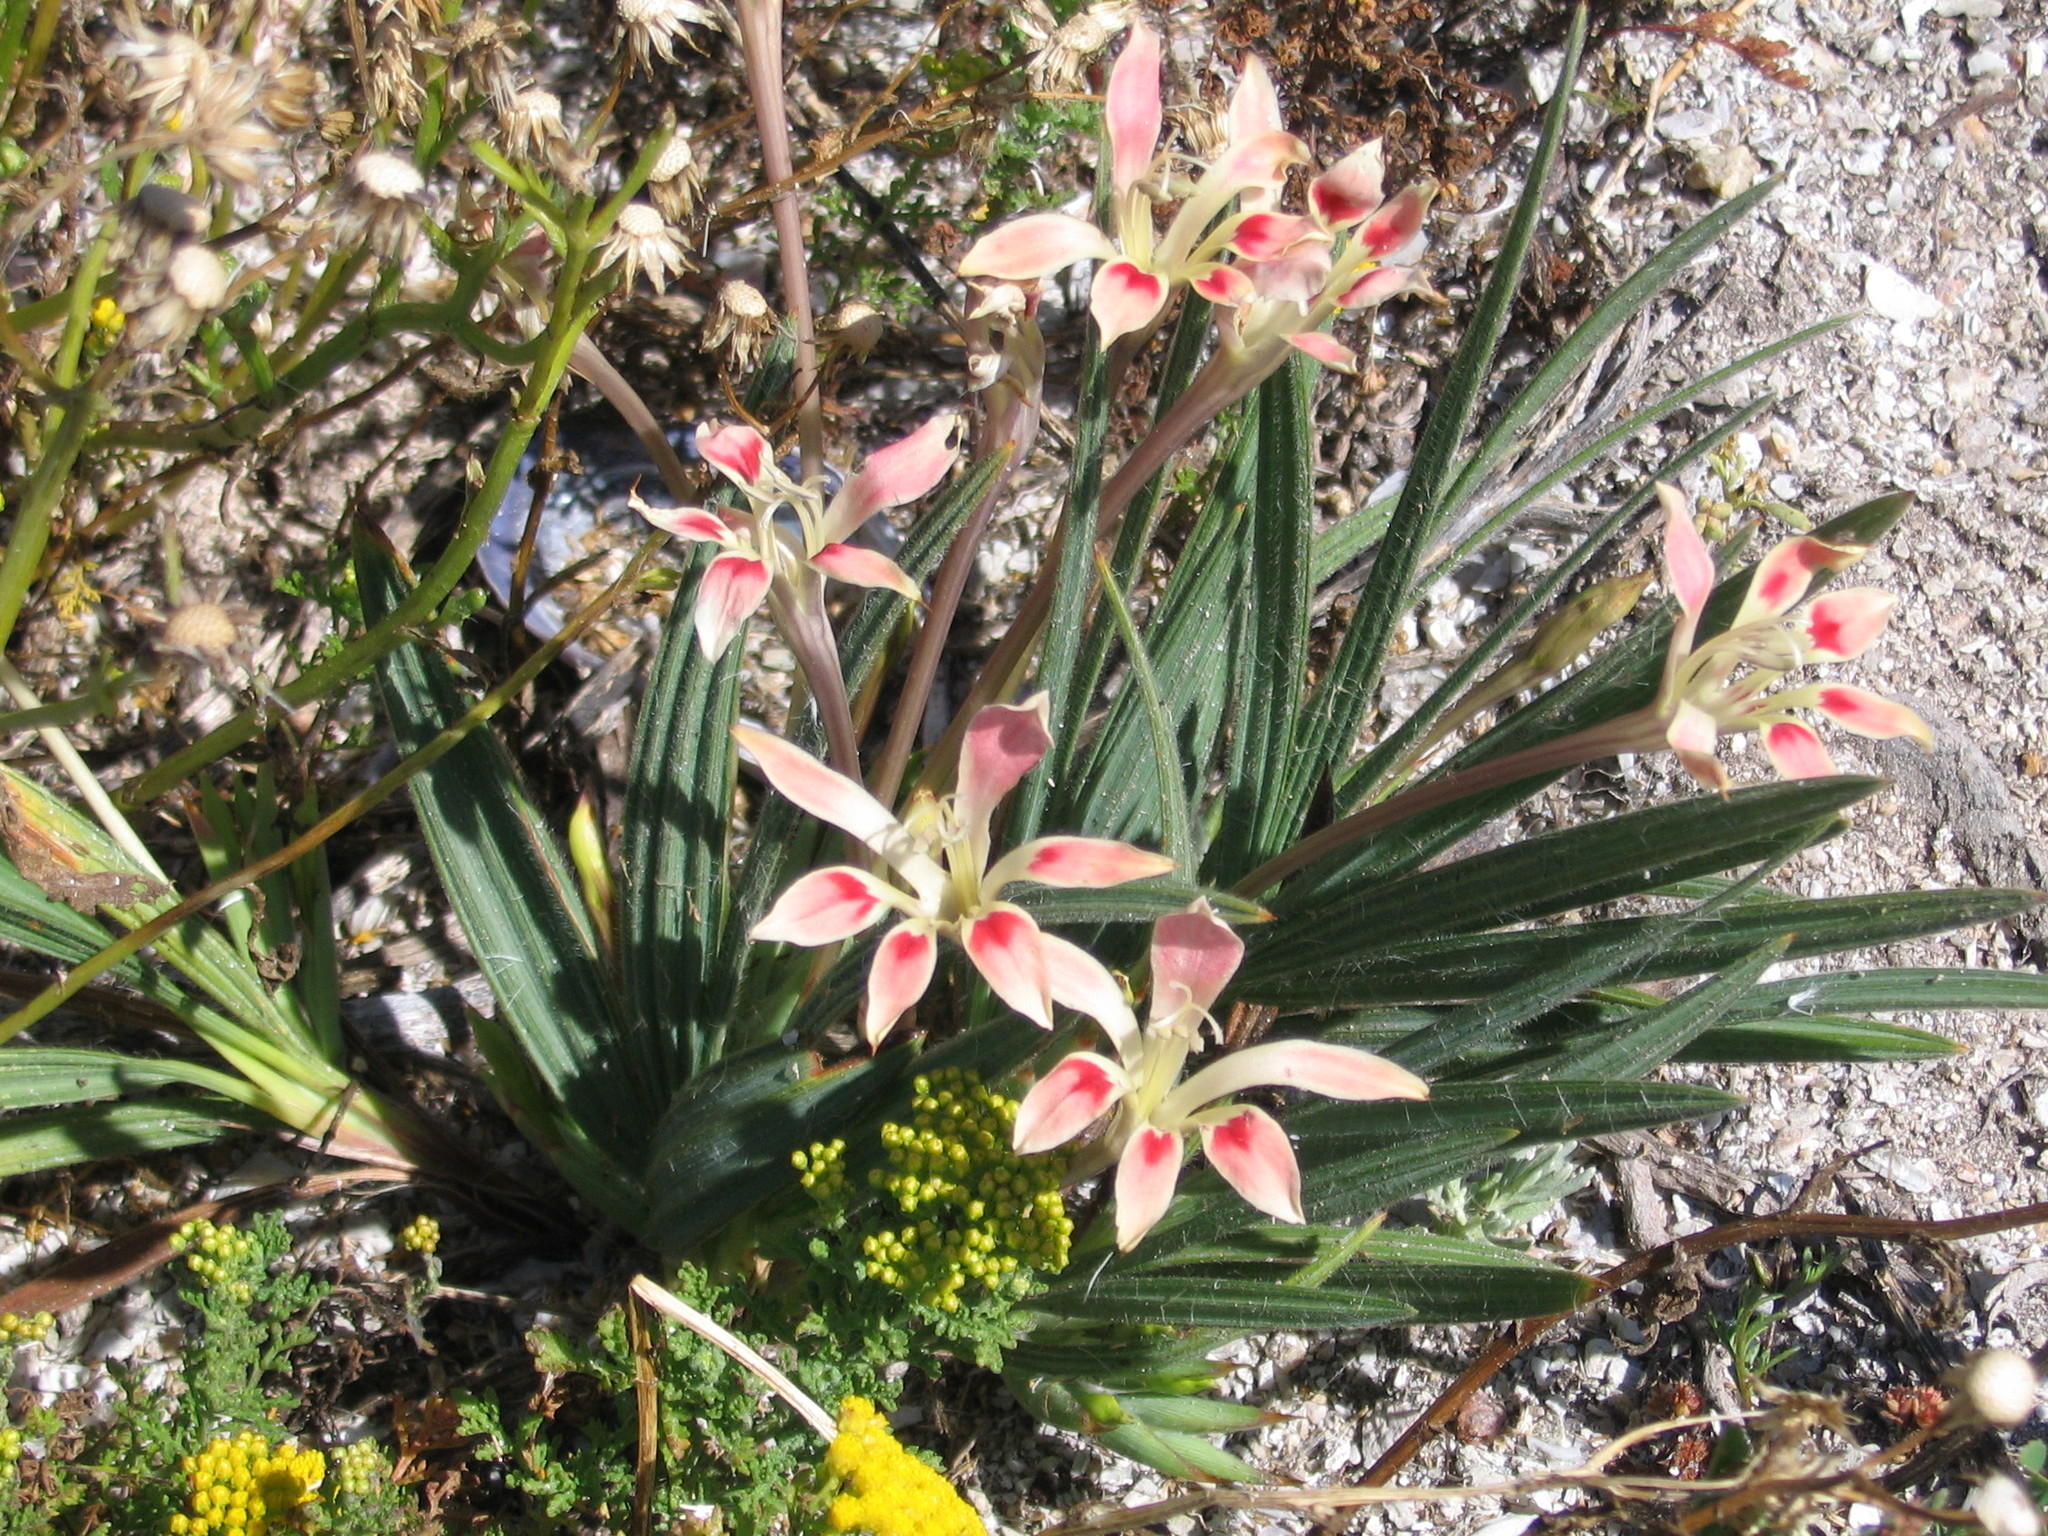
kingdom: Plantae
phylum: Tracheophyta
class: Liliopsida
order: Asparagales
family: Iridaceae
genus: Babiana
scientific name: Babiana tubiflora
